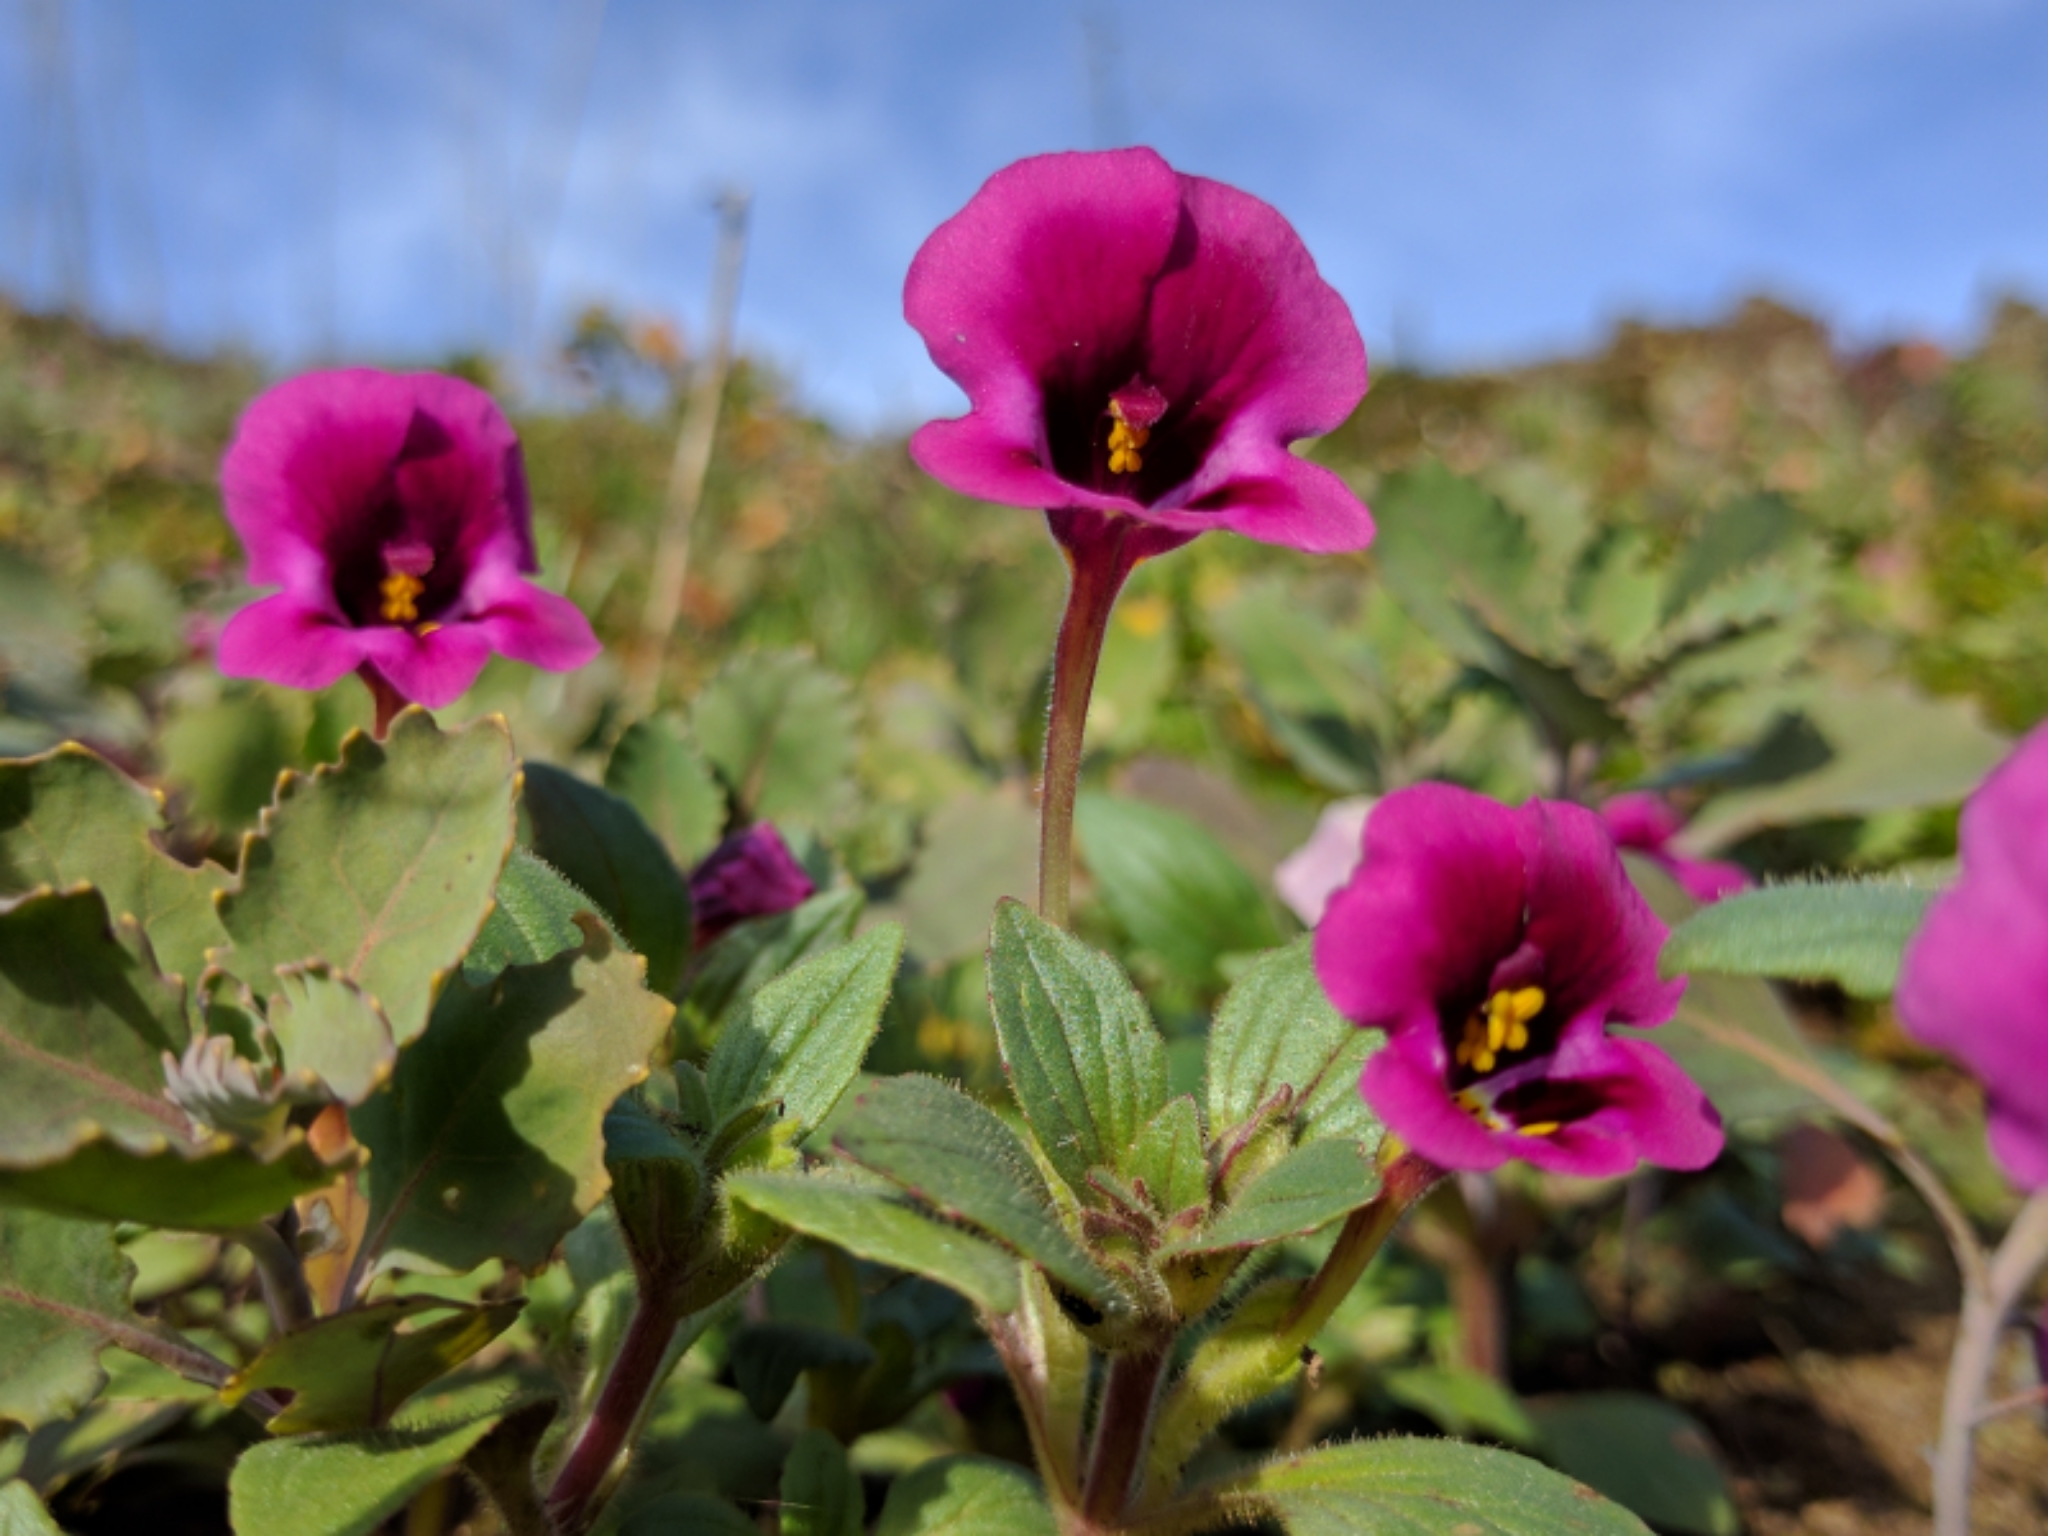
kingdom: Plantae
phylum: Tracheophyta
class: Magnoliopsida
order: Lamiales
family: Phrymaceae
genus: Diplacus
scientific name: Diplacus kelloggii
